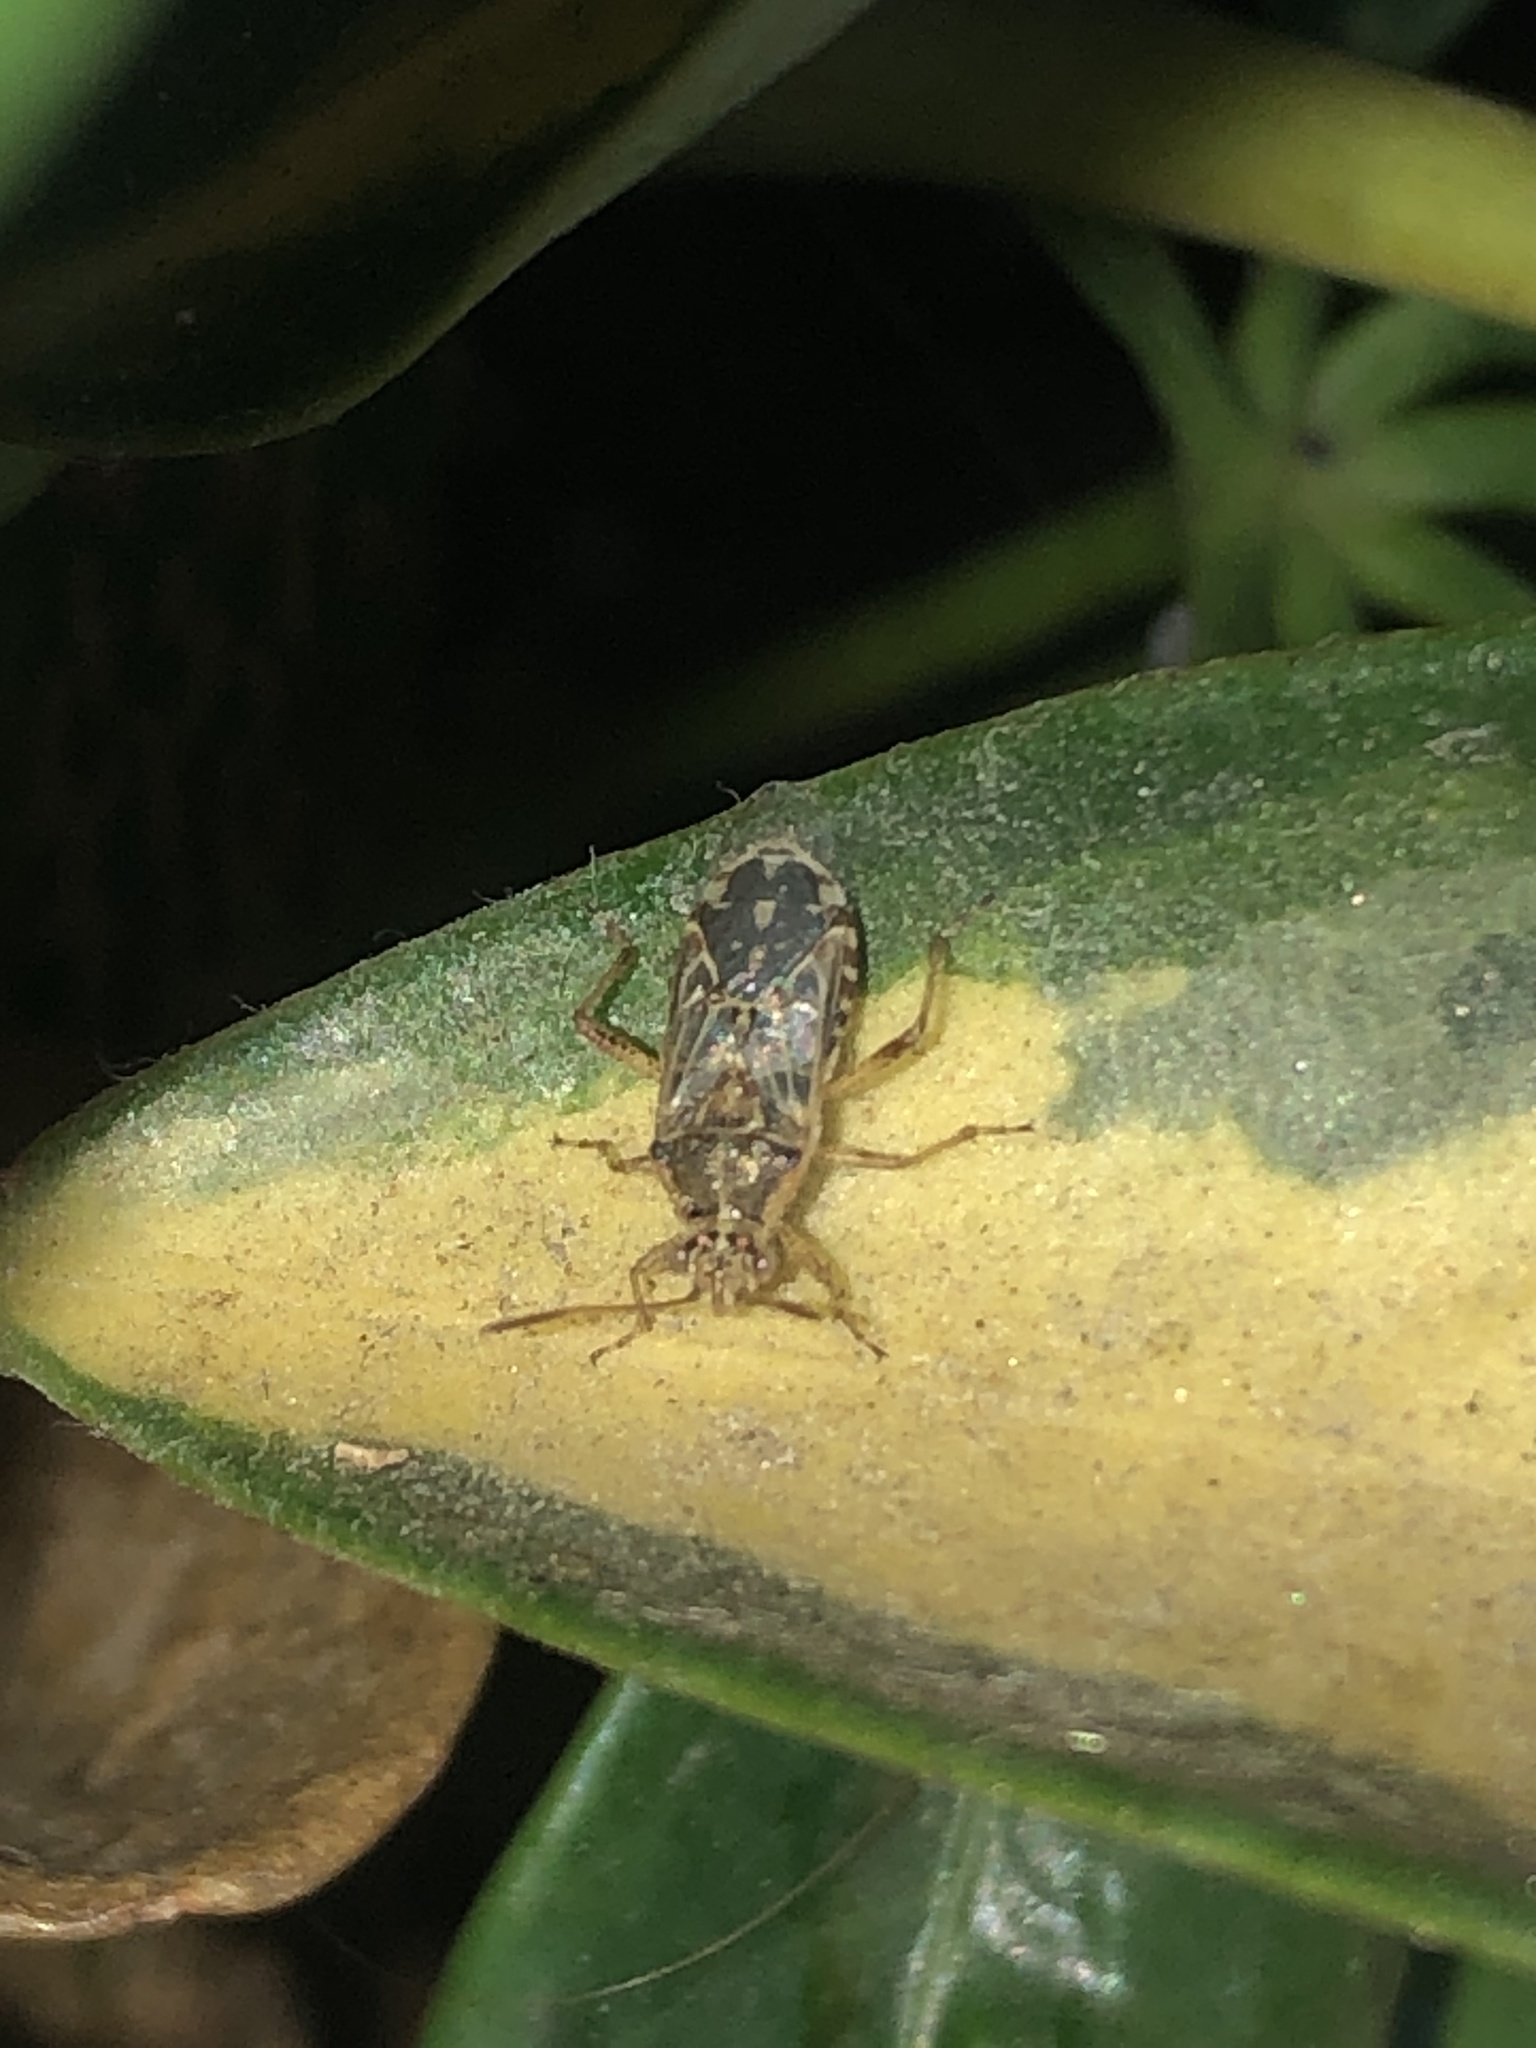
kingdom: Animalia
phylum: Arthropoda
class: Insecta
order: Hemiptera
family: Rhopalidae
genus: Liorhyssus
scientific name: Liorhyssus hyalinus
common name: Scentless plant bug
